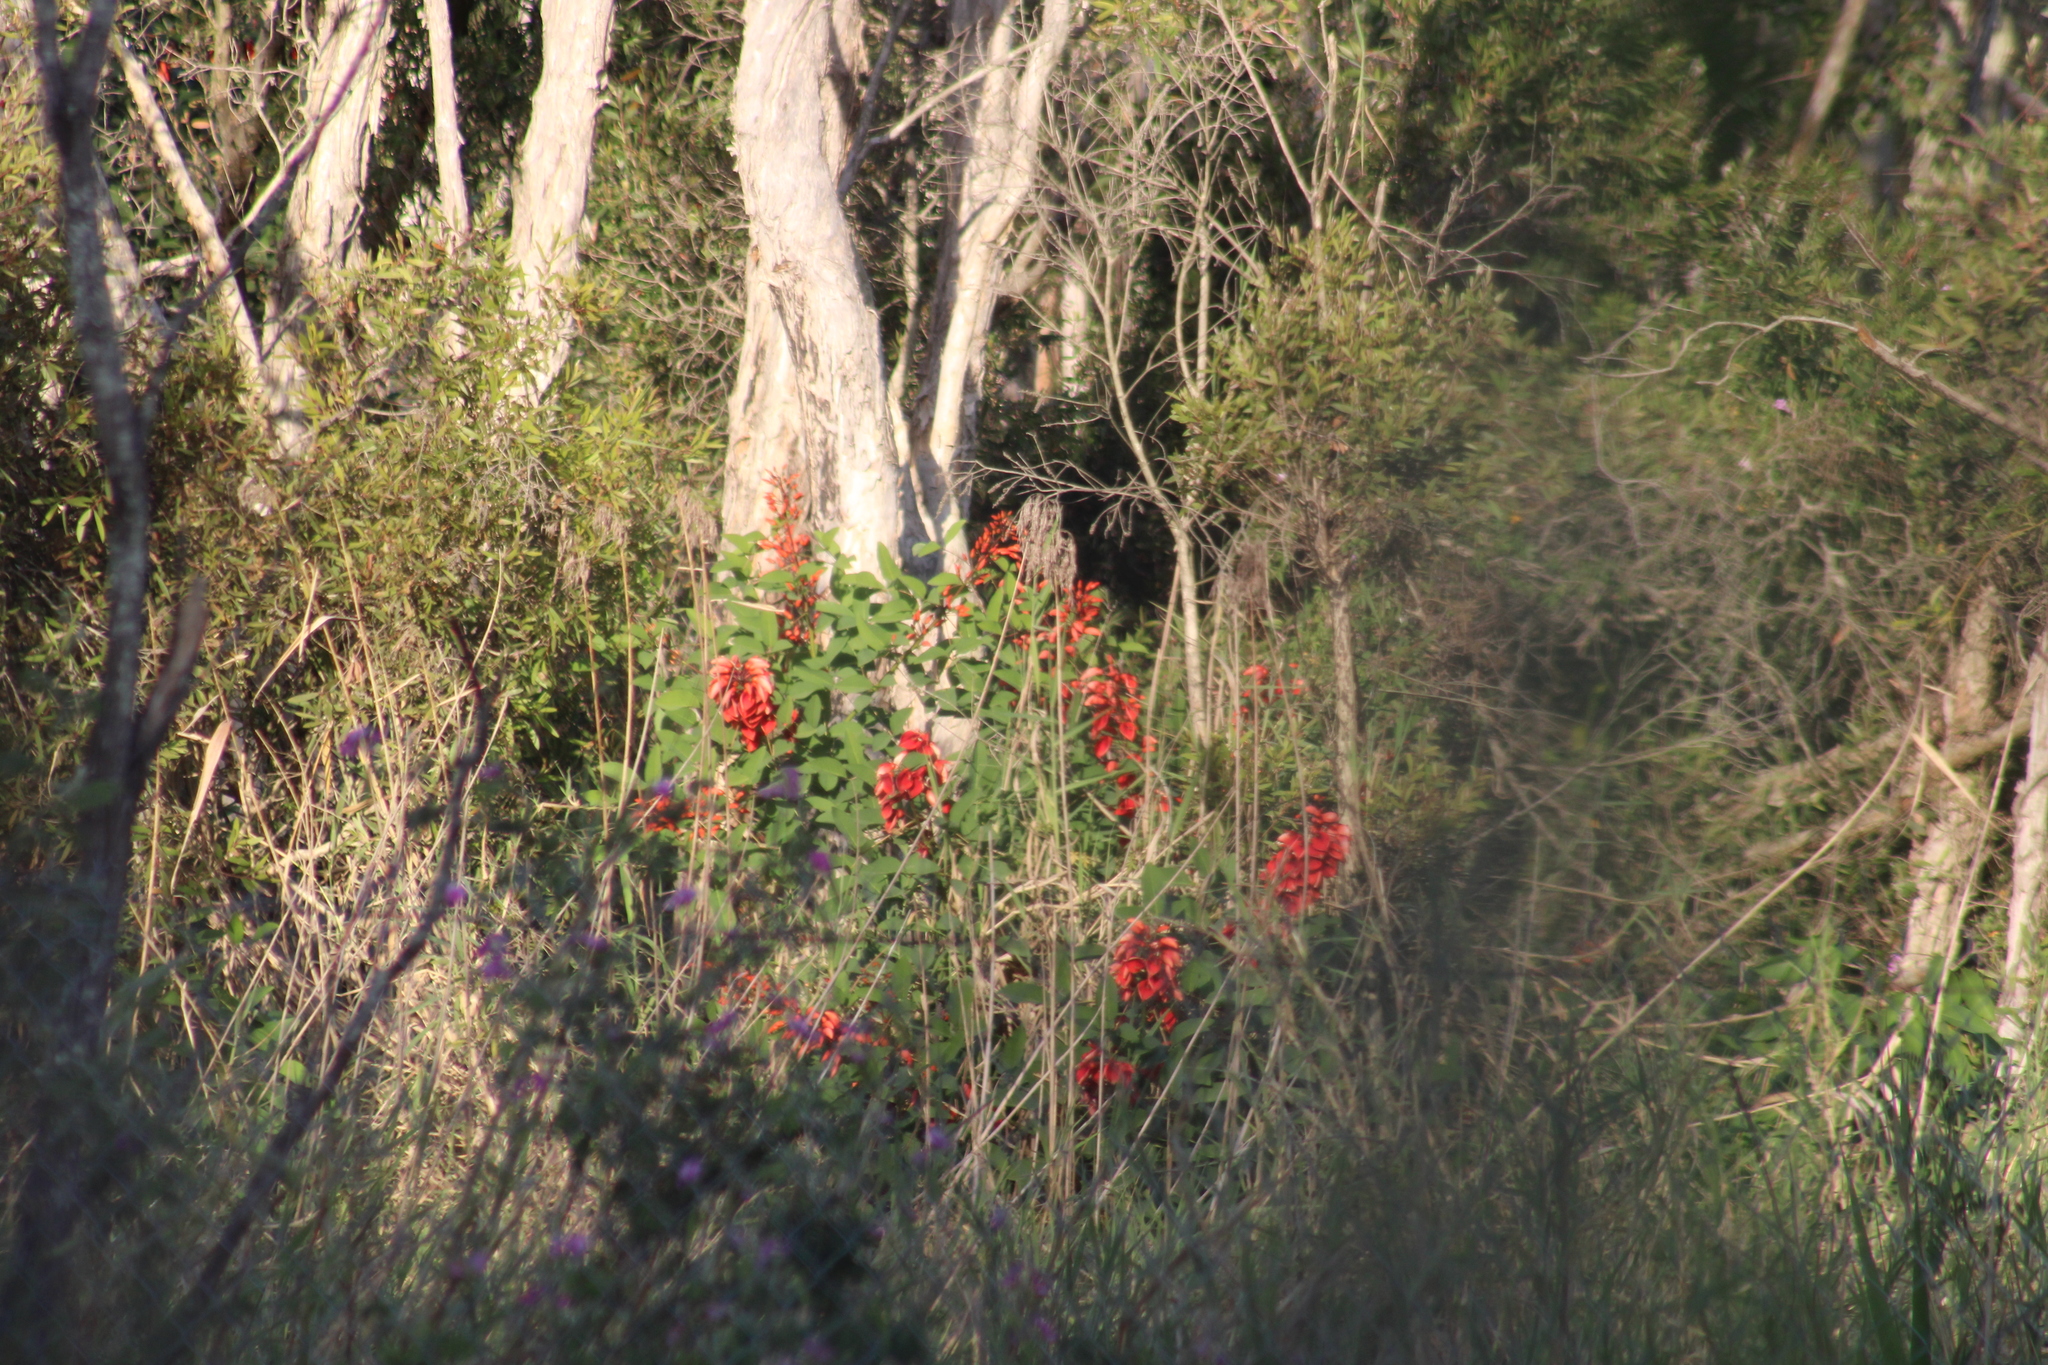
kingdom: Plantae
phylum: Tracheophyta
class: Magnoliopsida
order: Fabales
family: Fabaceae
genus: Erythrina
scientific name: Erythrina crista-galli
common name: Cockspur coral tree
